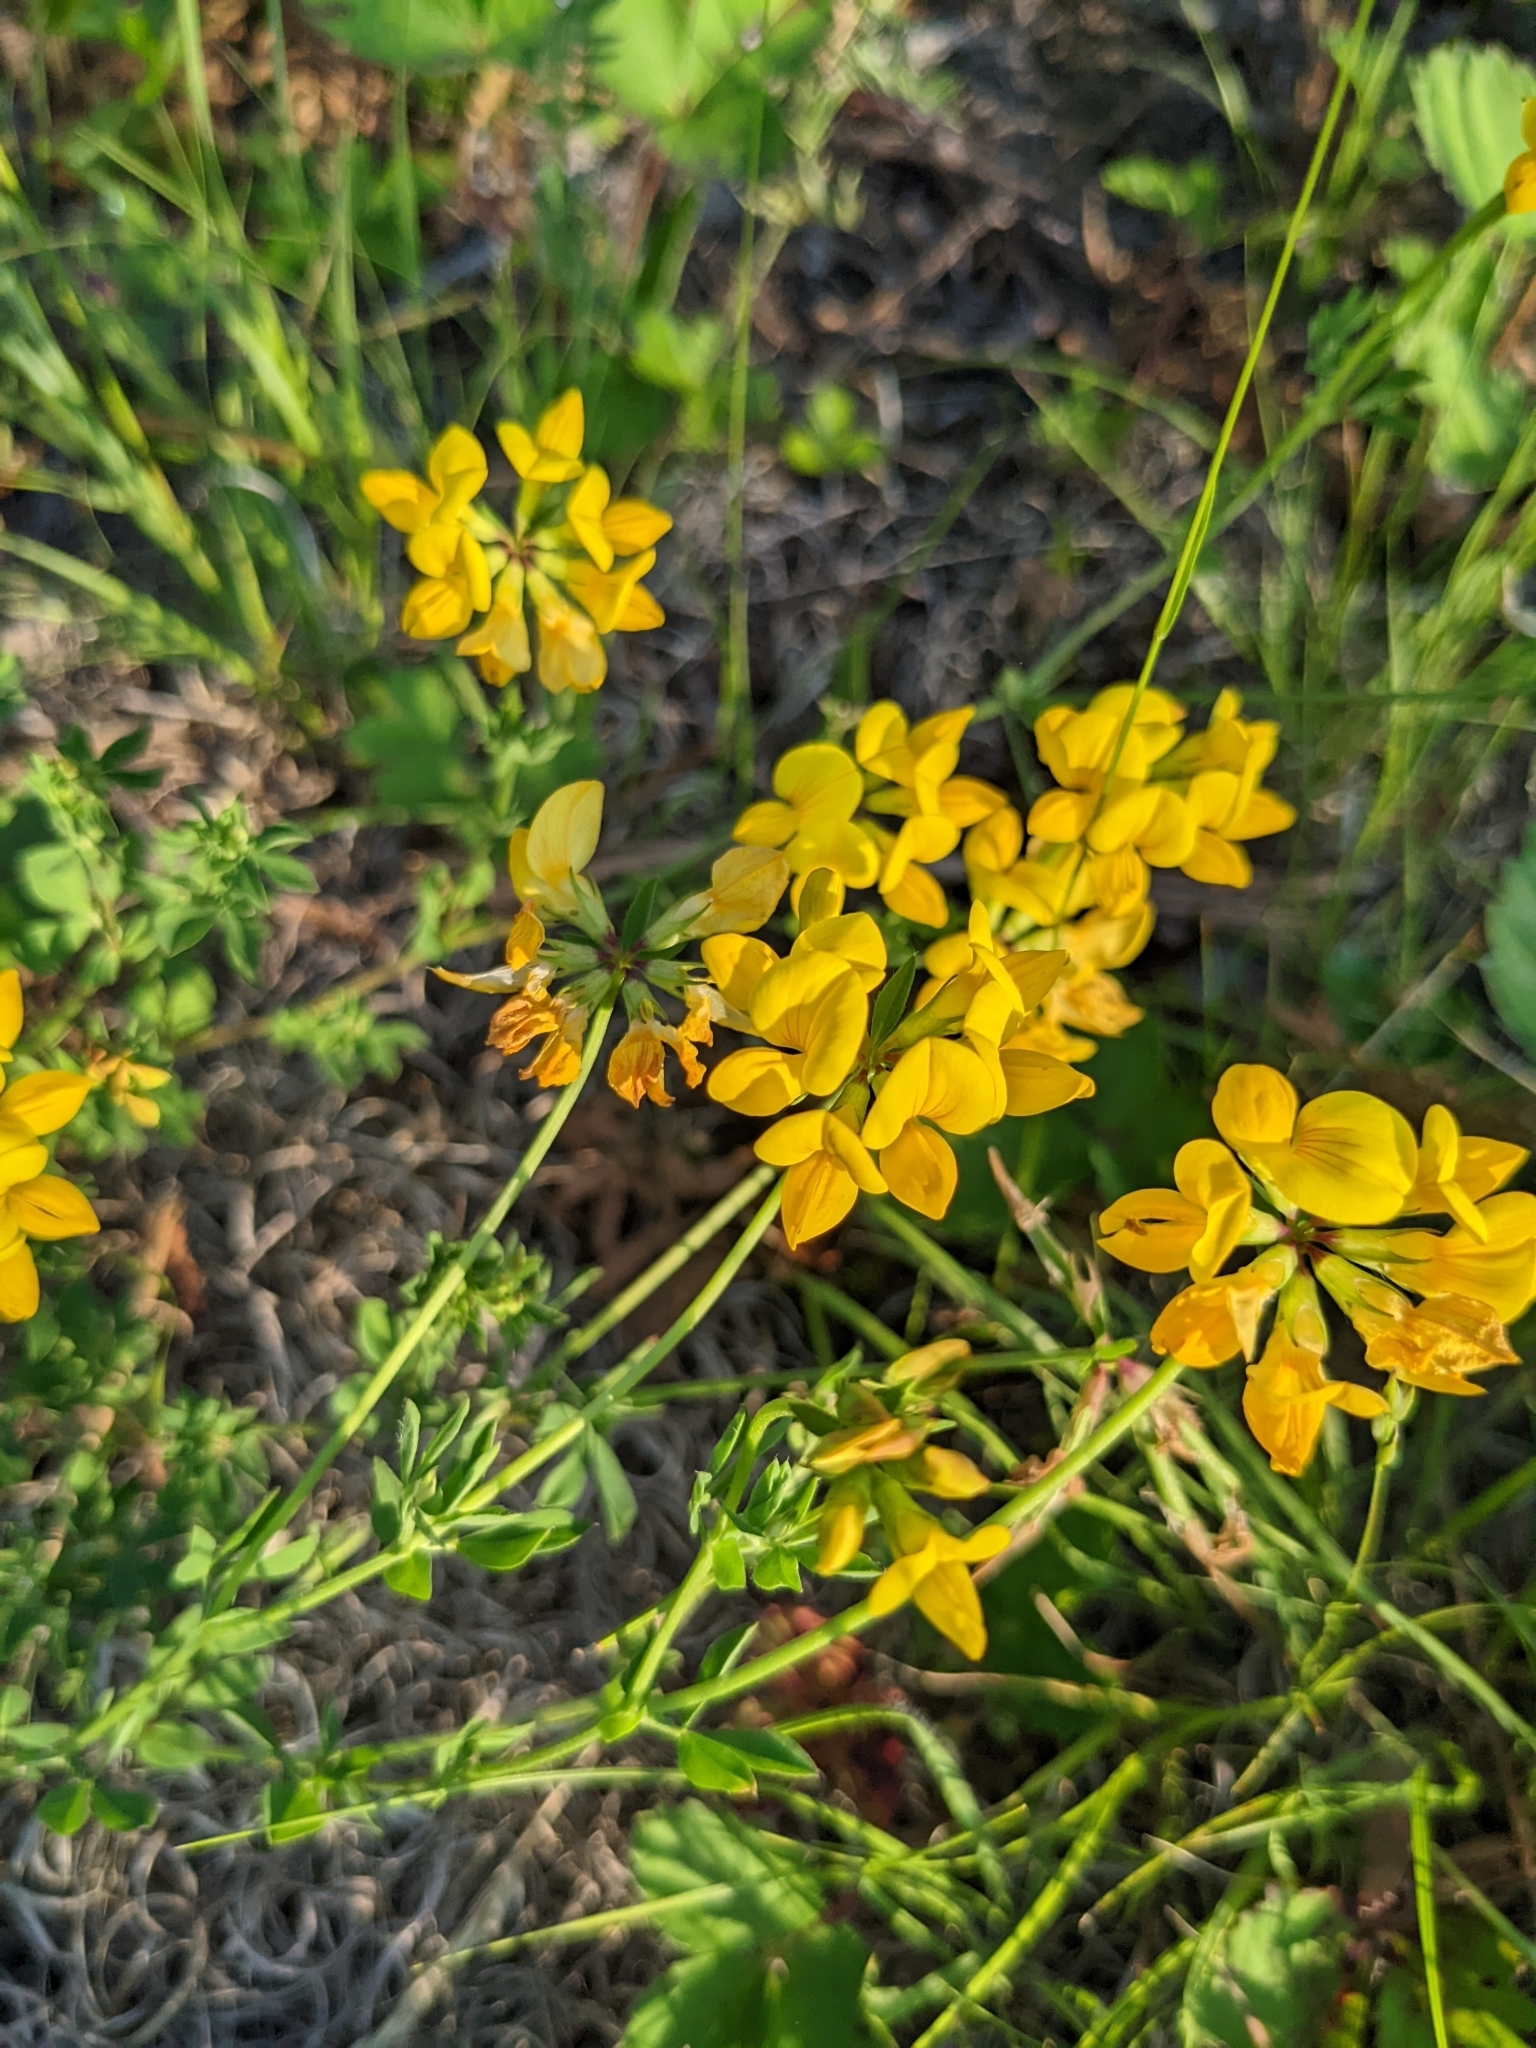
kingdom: Plantae
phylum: Tracheophyta
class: Magnoliopsida
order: Fabales
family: Fabaceae
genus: Lotus
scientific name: Lotus corniculatus
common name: Common bird's-foot-trefoil
